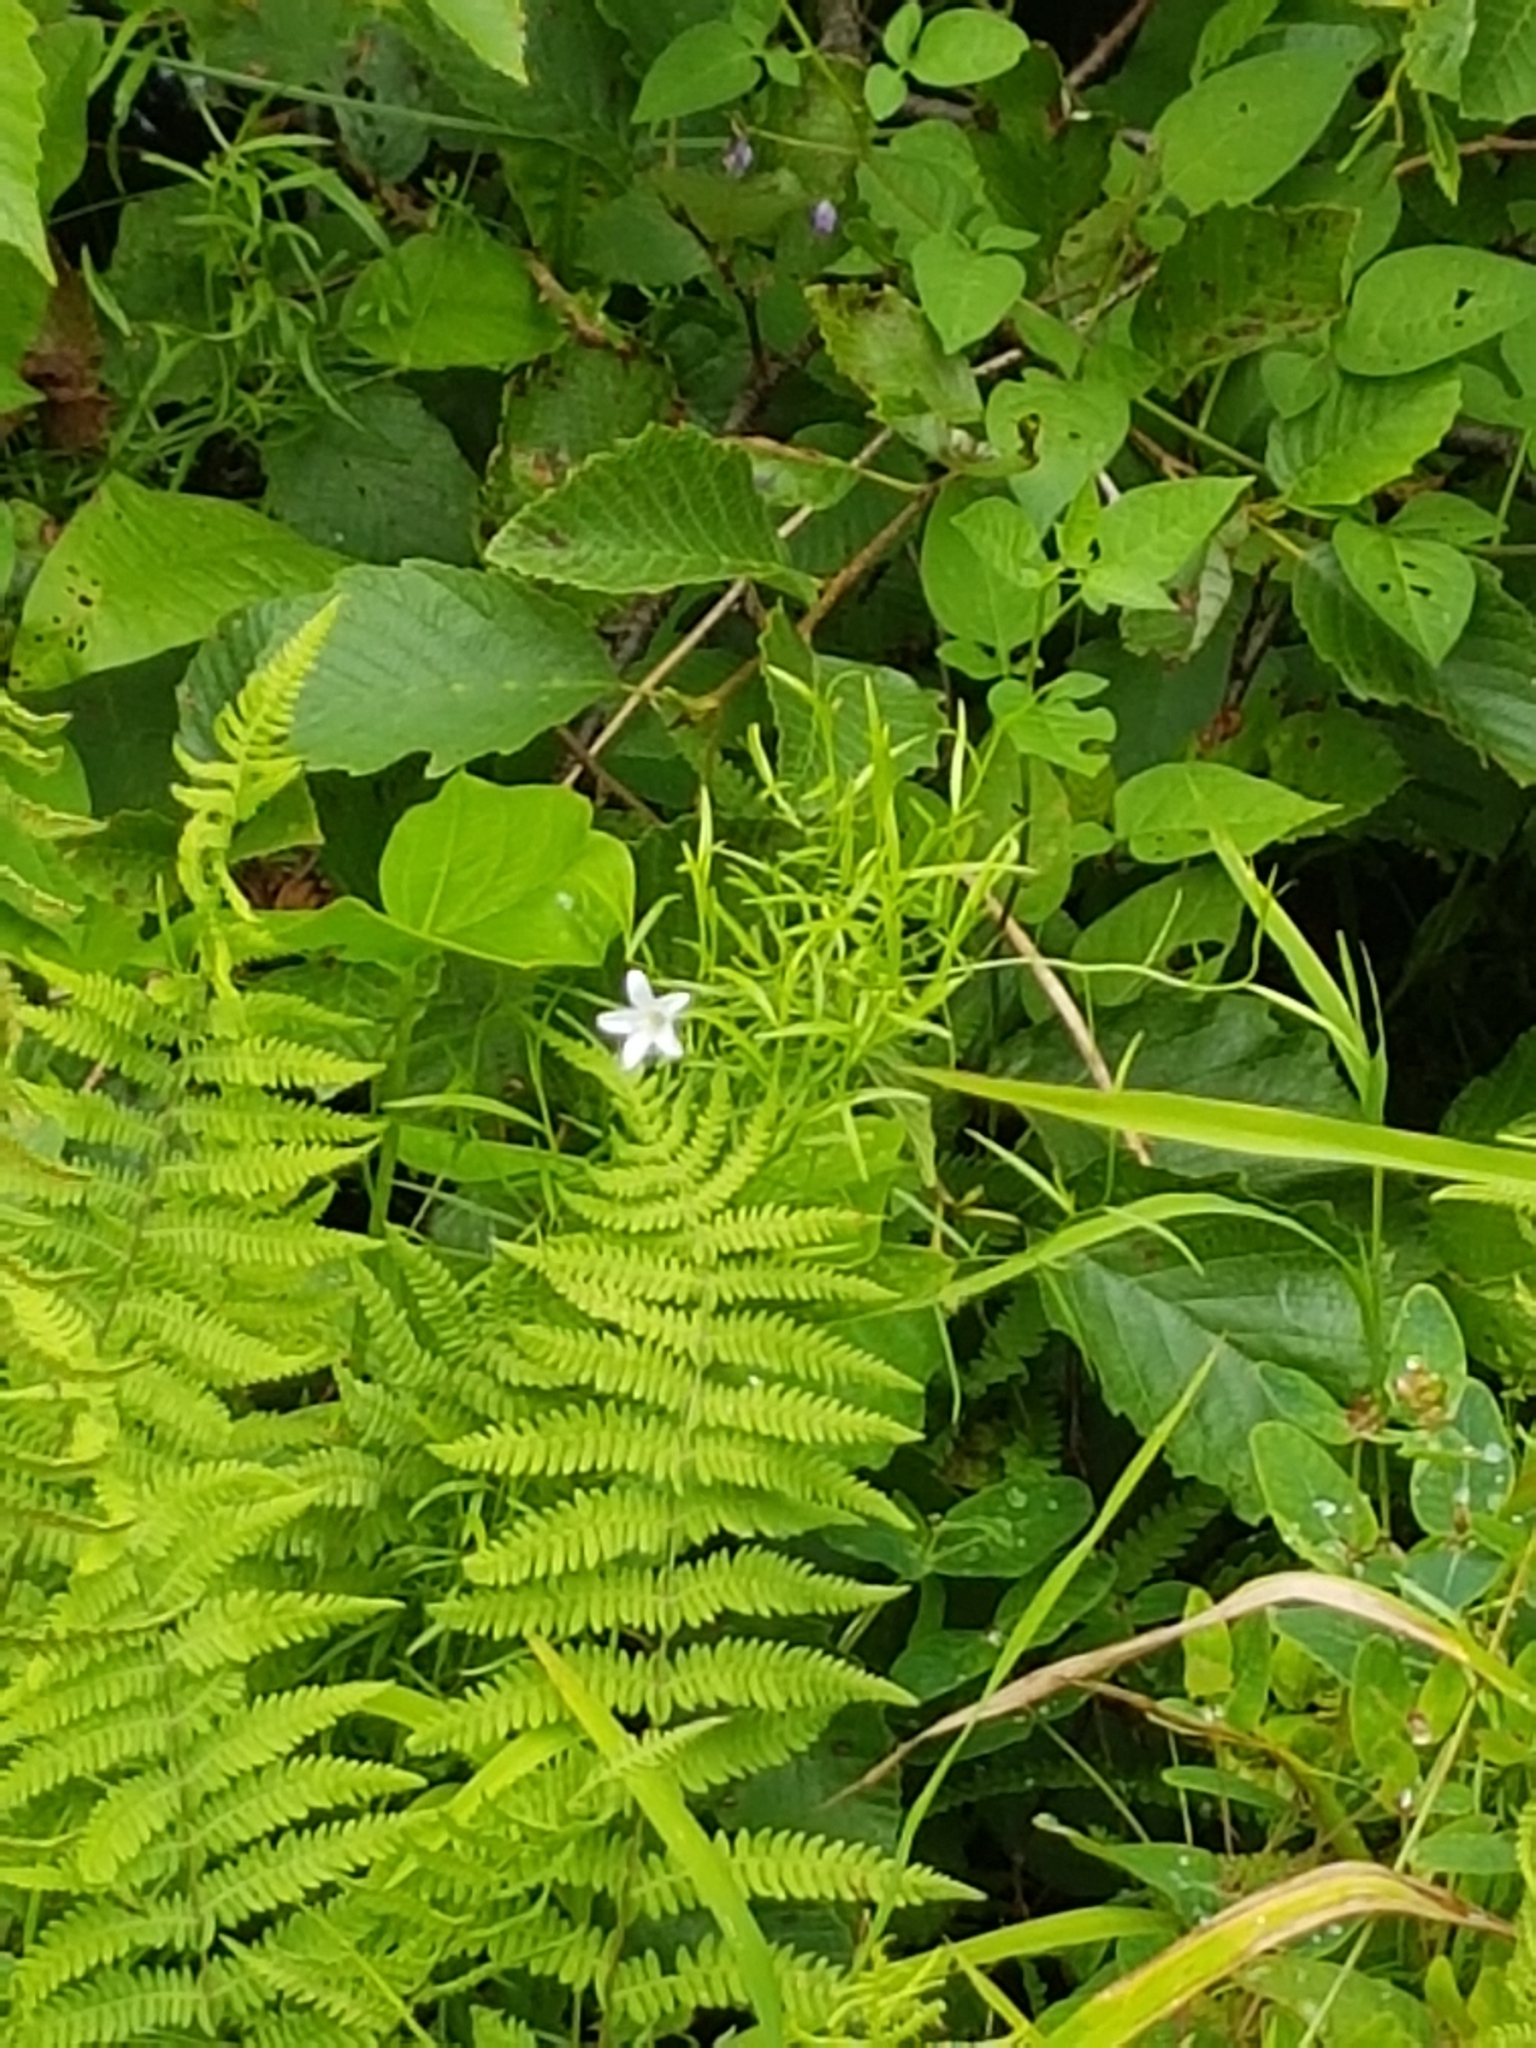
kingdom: Plantae
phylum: Tracheophyta
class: Magnoliopsida
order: Asterales
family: Campanulaceae
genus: Palustricodon
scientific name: Palustricodon aparinoides
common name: Bedstraw bellflower
